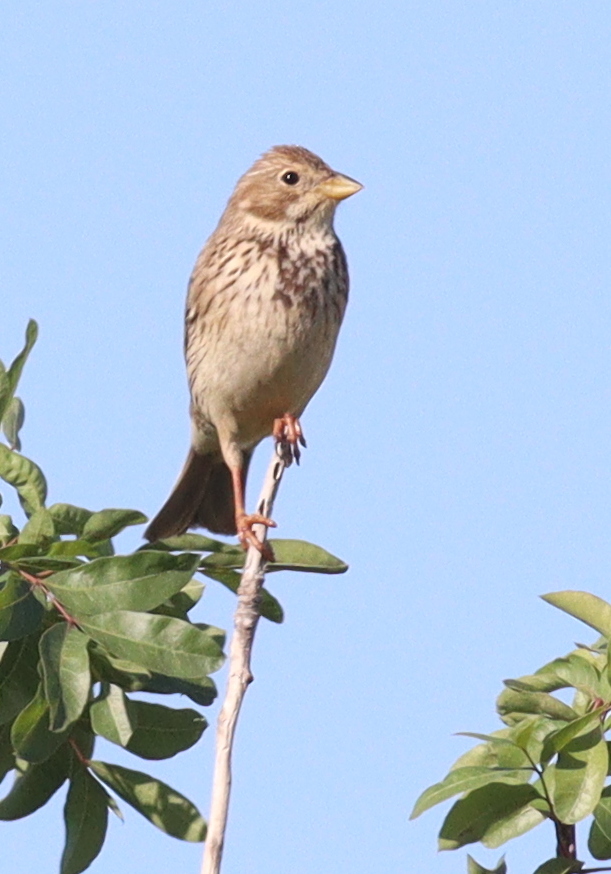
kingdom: Animalia
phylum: Chordata
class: Aves
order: Passeriformes
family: Emberizidae
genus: Emberiza
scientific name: Emberiza calandra
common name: Corn bunting
